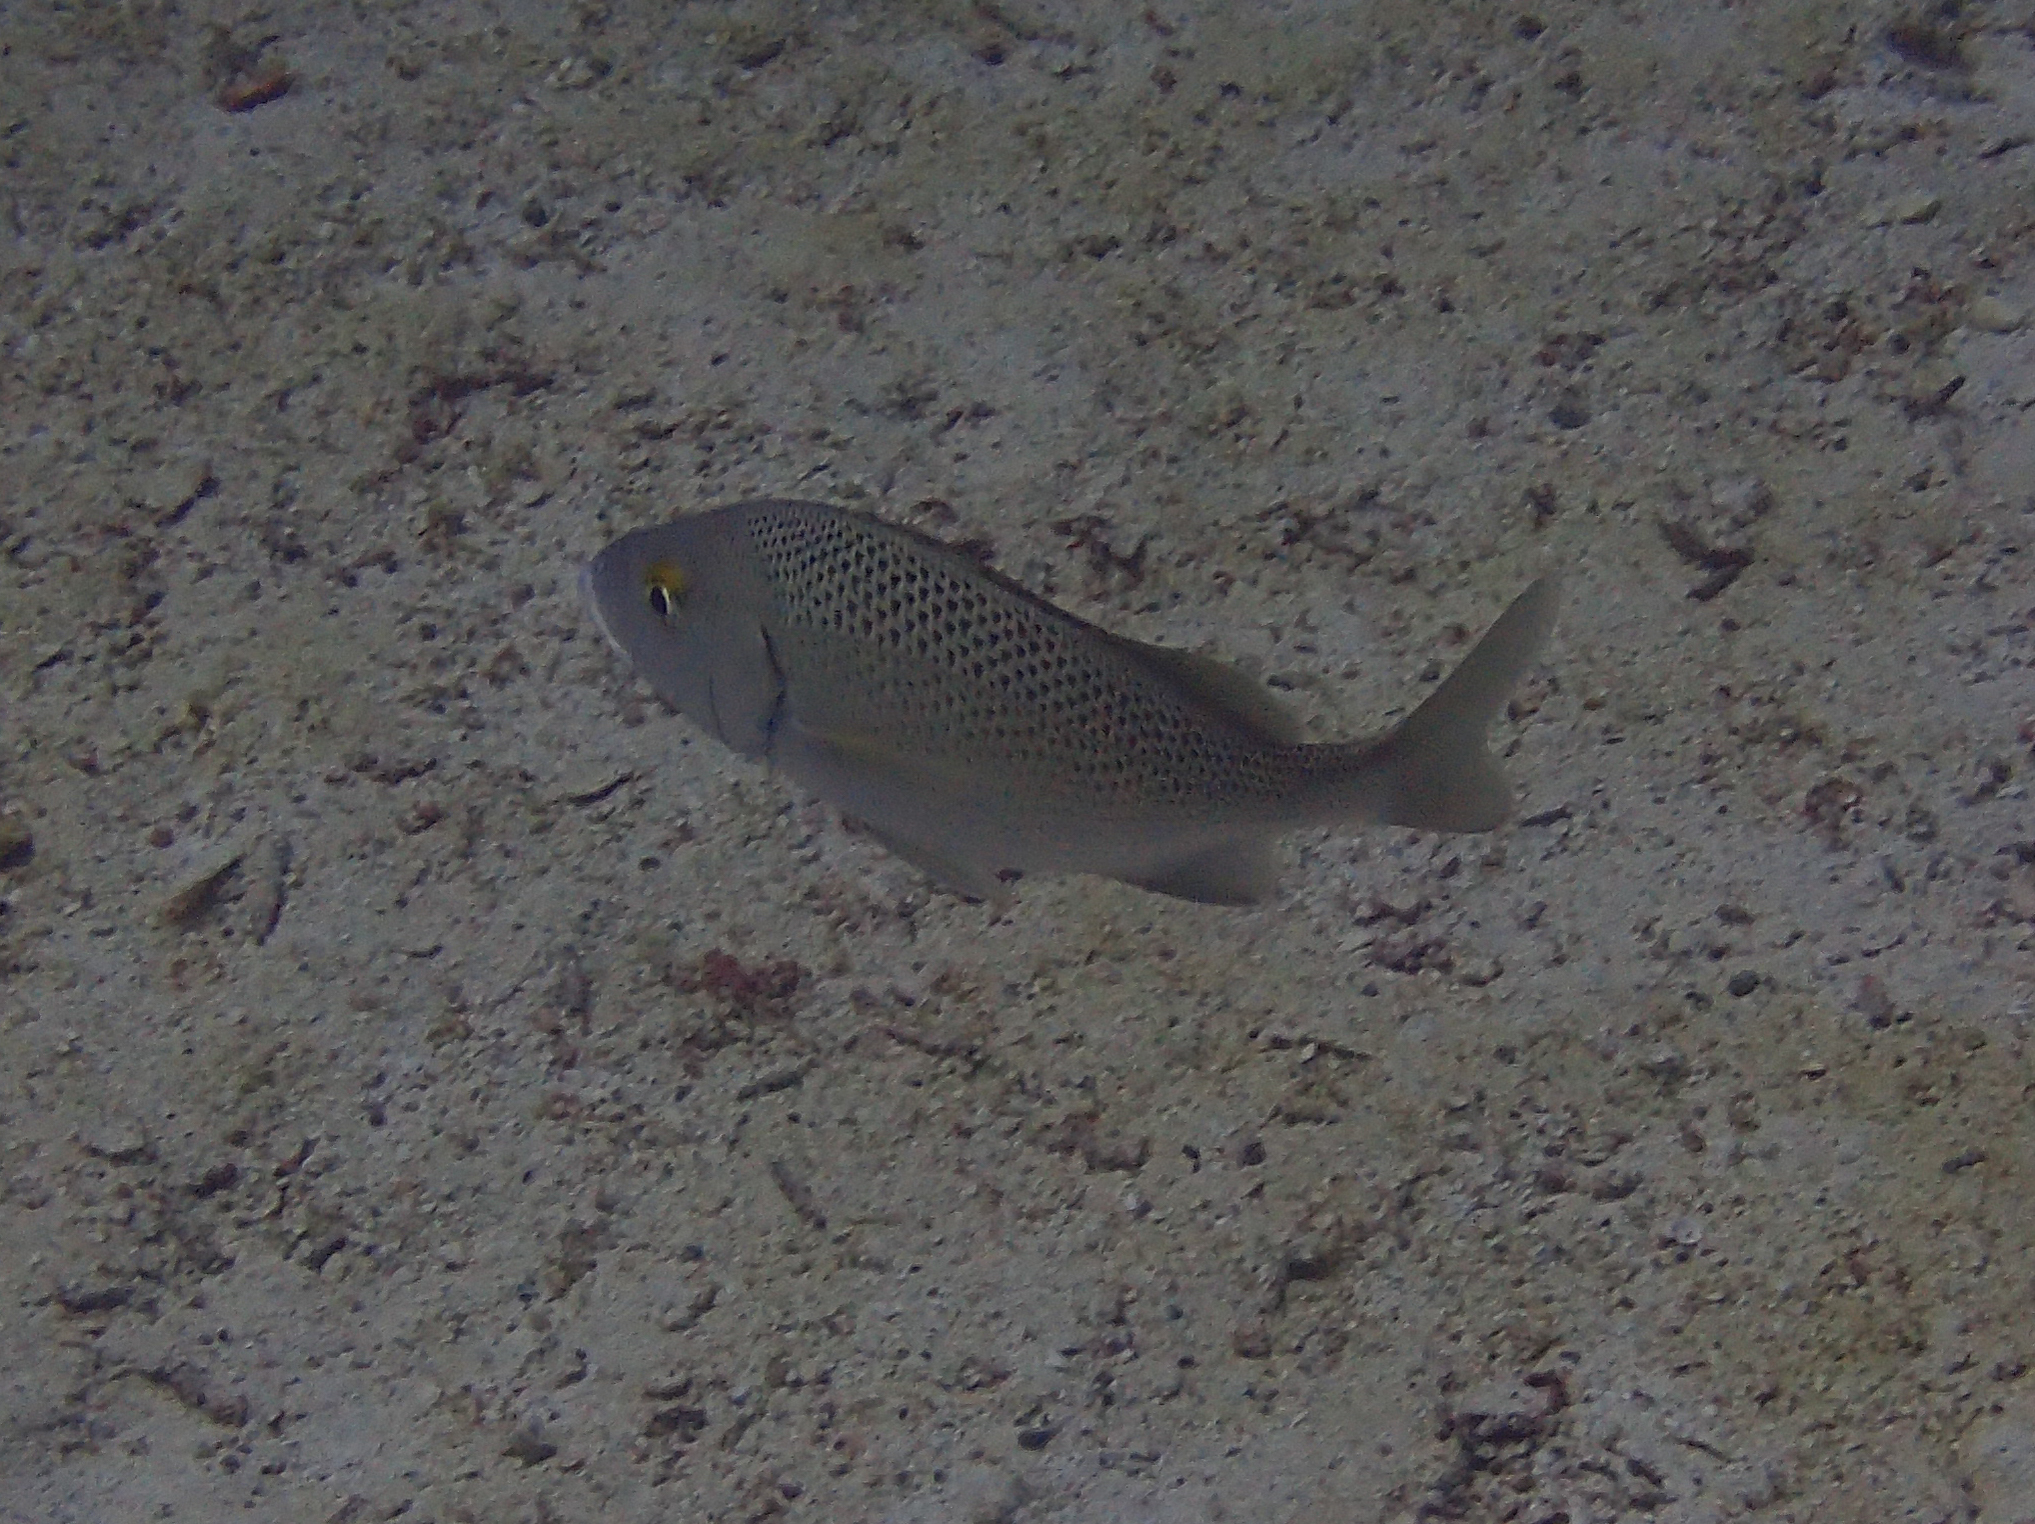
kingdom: Animalia
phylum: Chordata
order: Perciformes
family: Haemulidae
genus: Haemulon
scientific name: Haemulon scudderii
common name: Grey grunt
